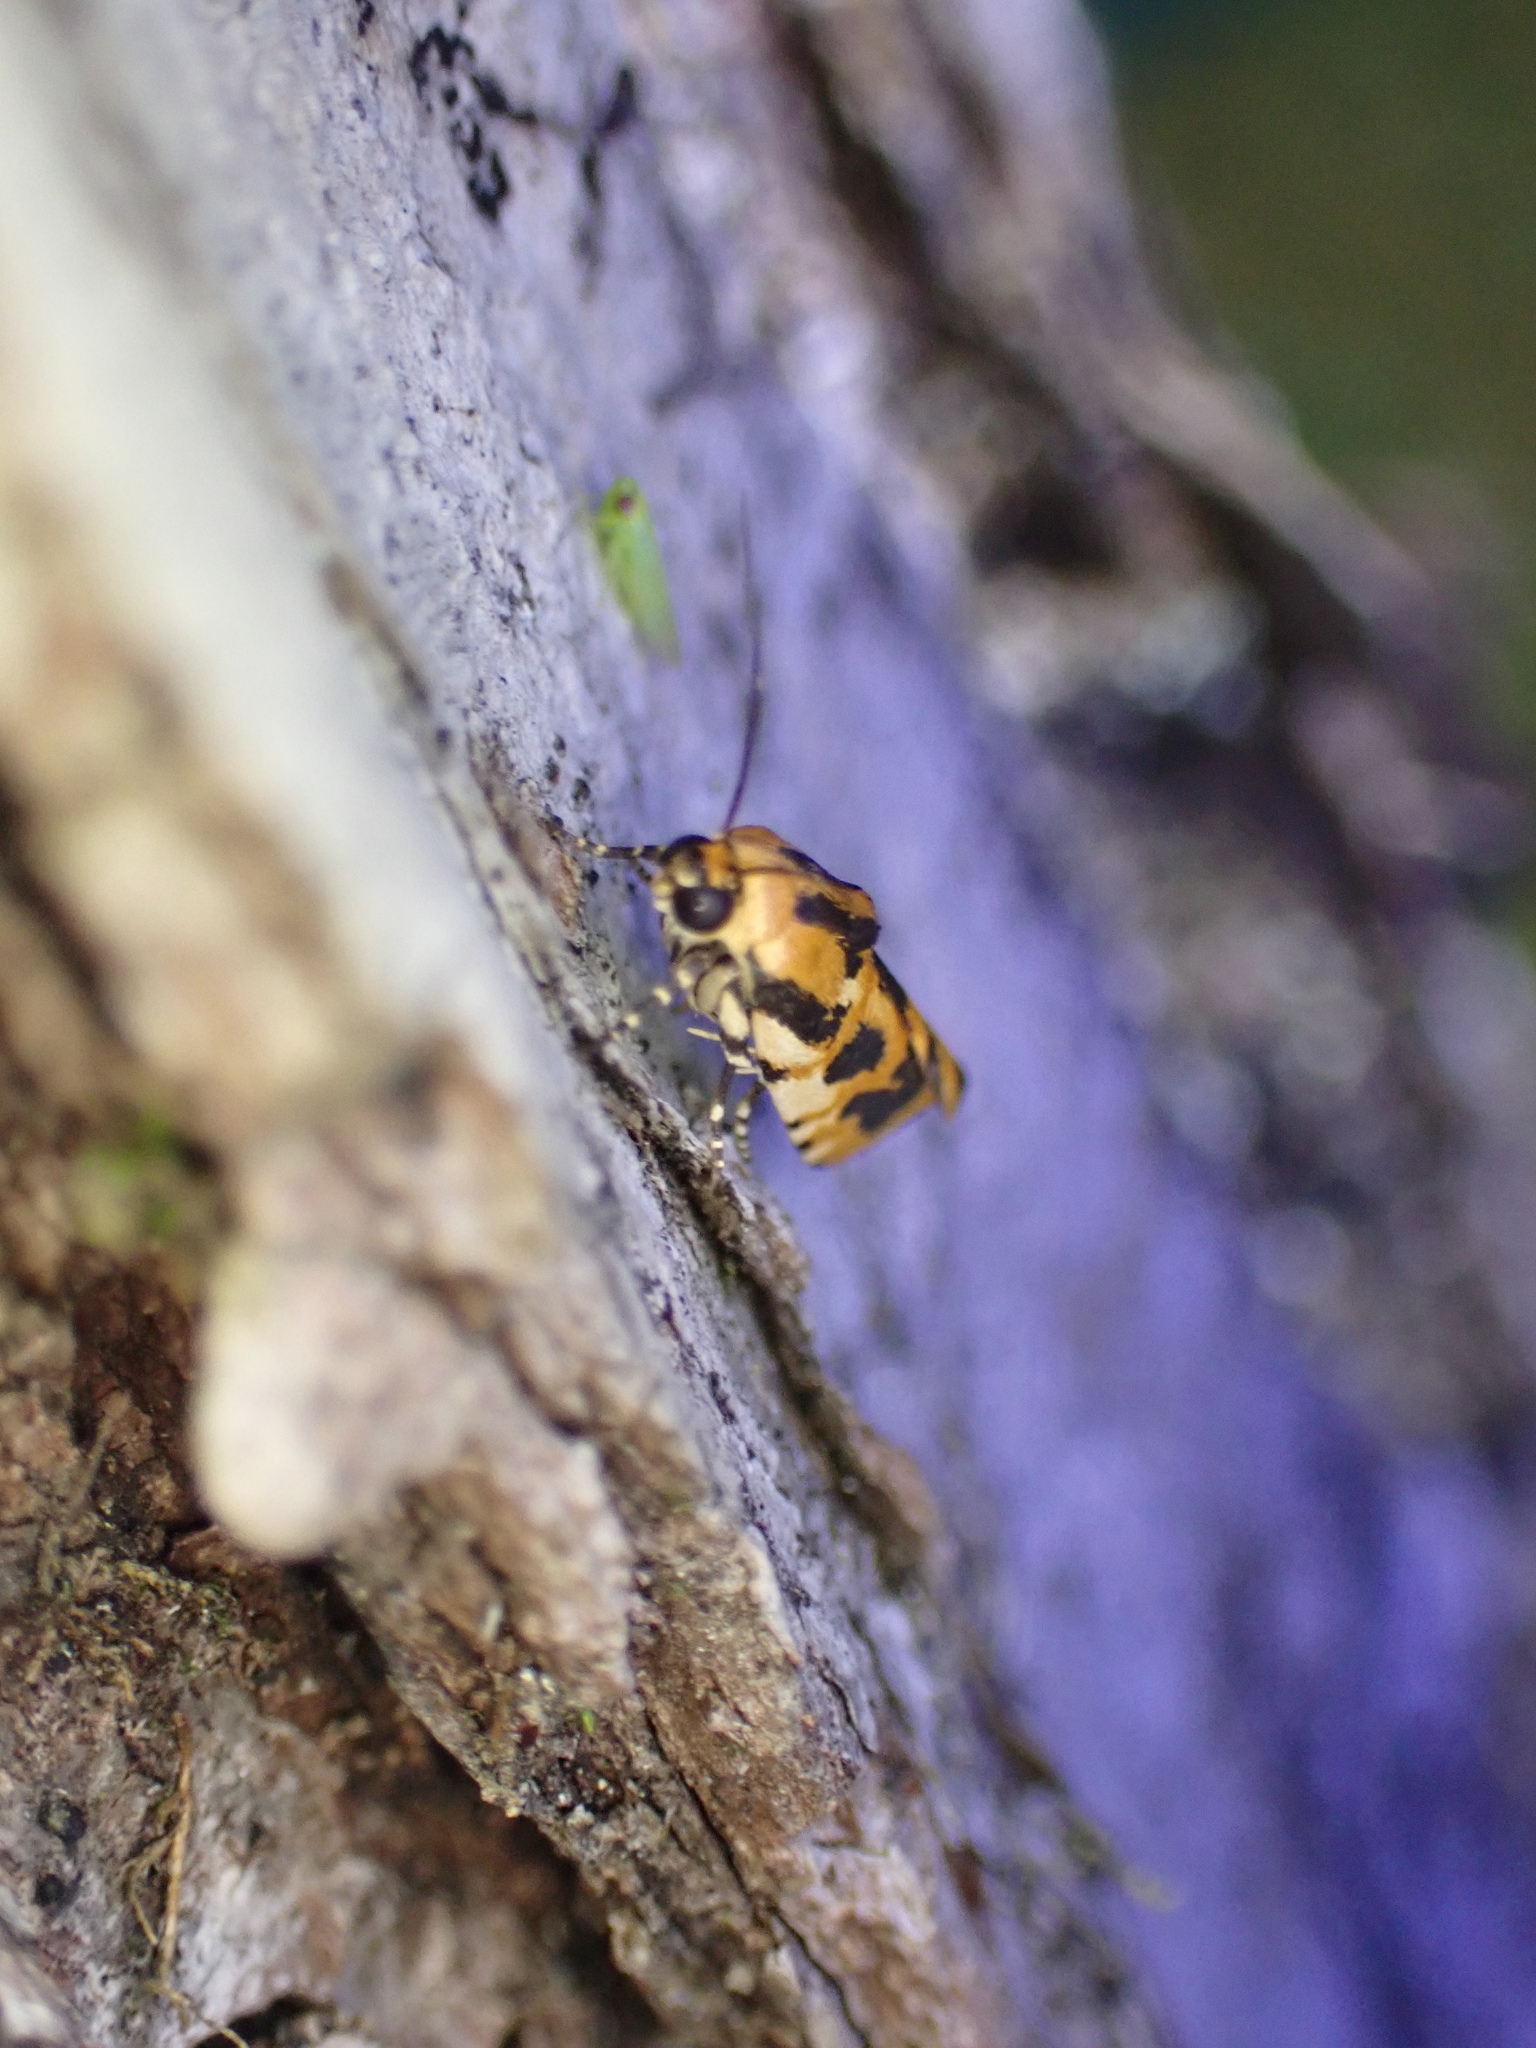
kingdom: Animalia
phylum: Arthropoda
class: Insecta
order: Lepidoptera
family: Noctuidae
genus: Acontia
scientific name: Acontia leo
